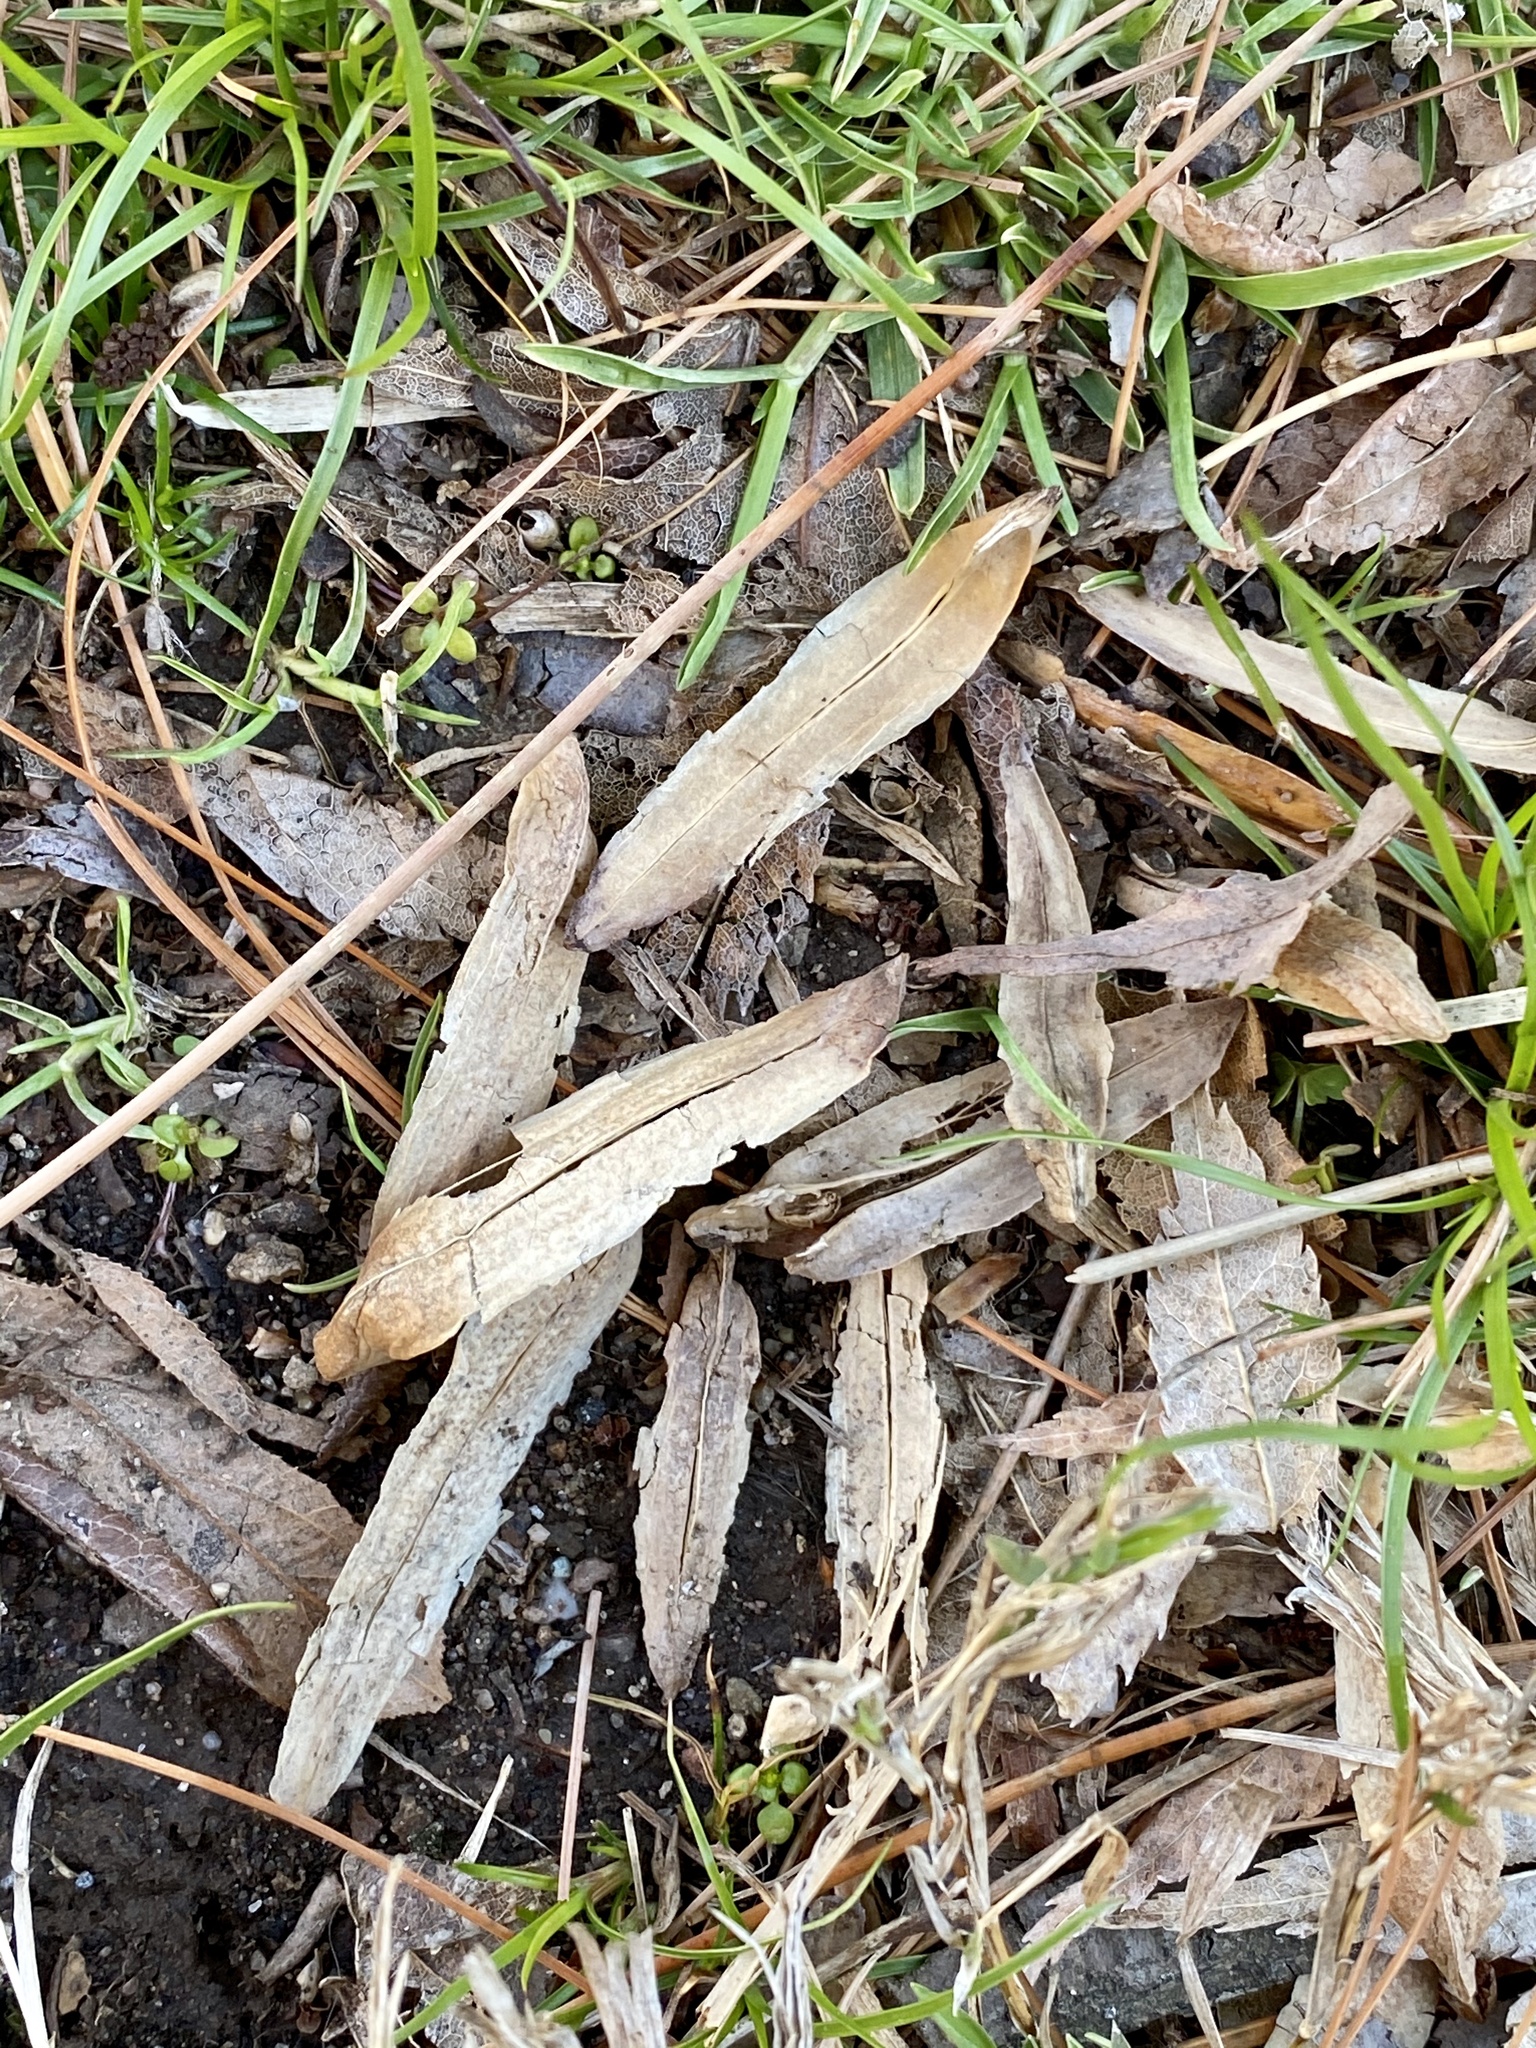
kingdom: Plantae
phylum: Tracheophyta
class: Magnoliopsida
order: Magnoliales
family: Magnoliaceae
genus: Liriodendron
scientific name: Liriodendron tulipifera
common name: Tulip tree
